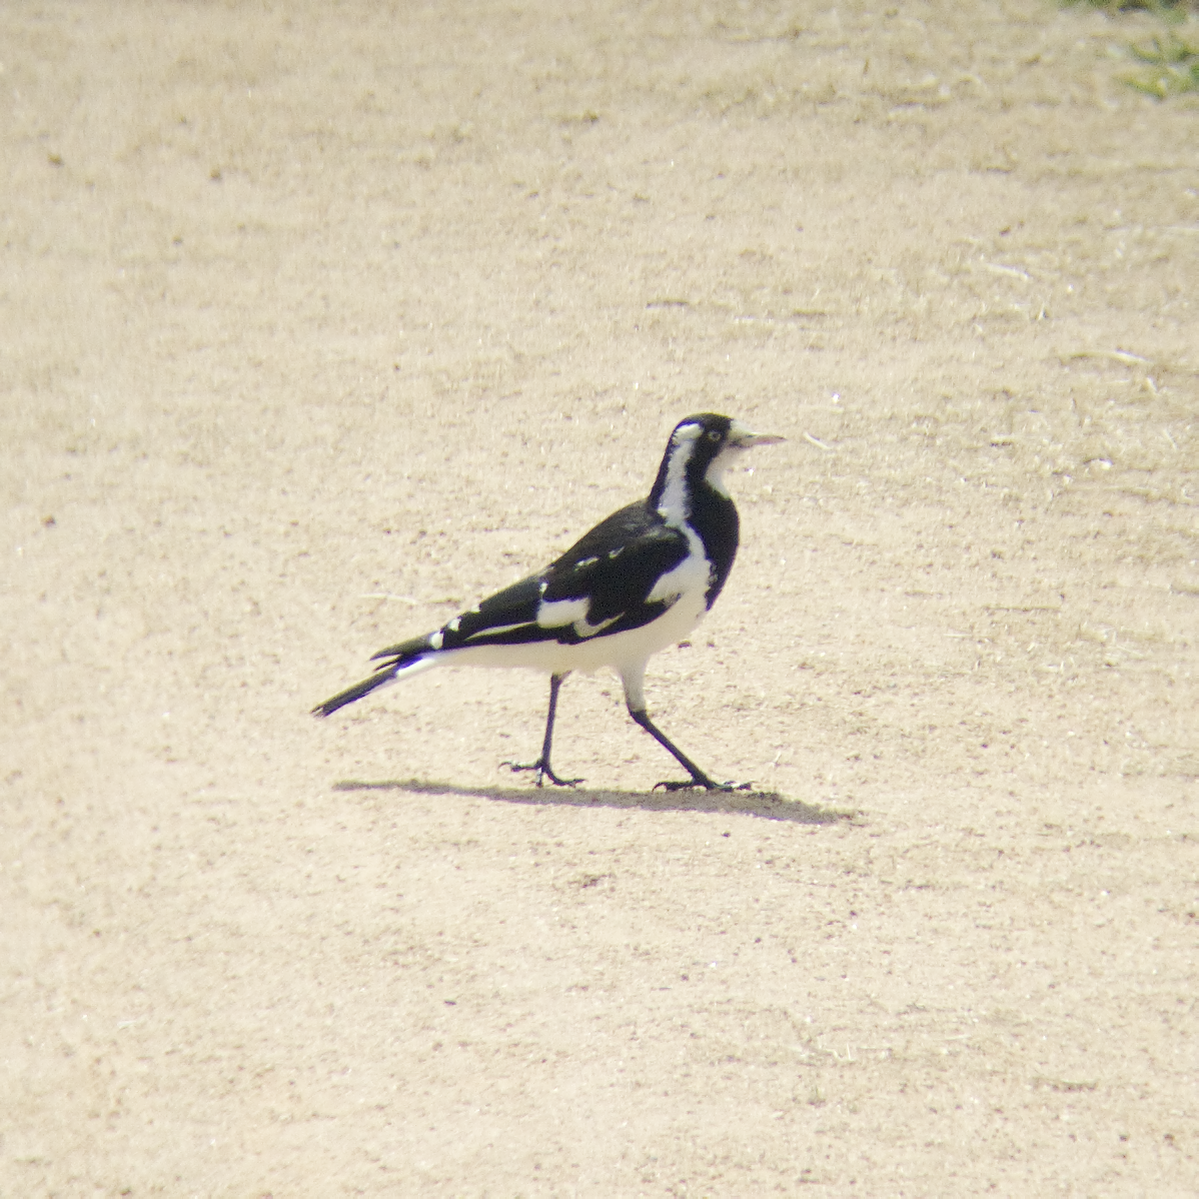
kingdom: Animalia
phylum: Chordata
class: Aves
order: Passeriformes
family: Monarchidae
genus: Grallina
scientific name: Grallina cyanoleuca
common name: Magpie-lark
